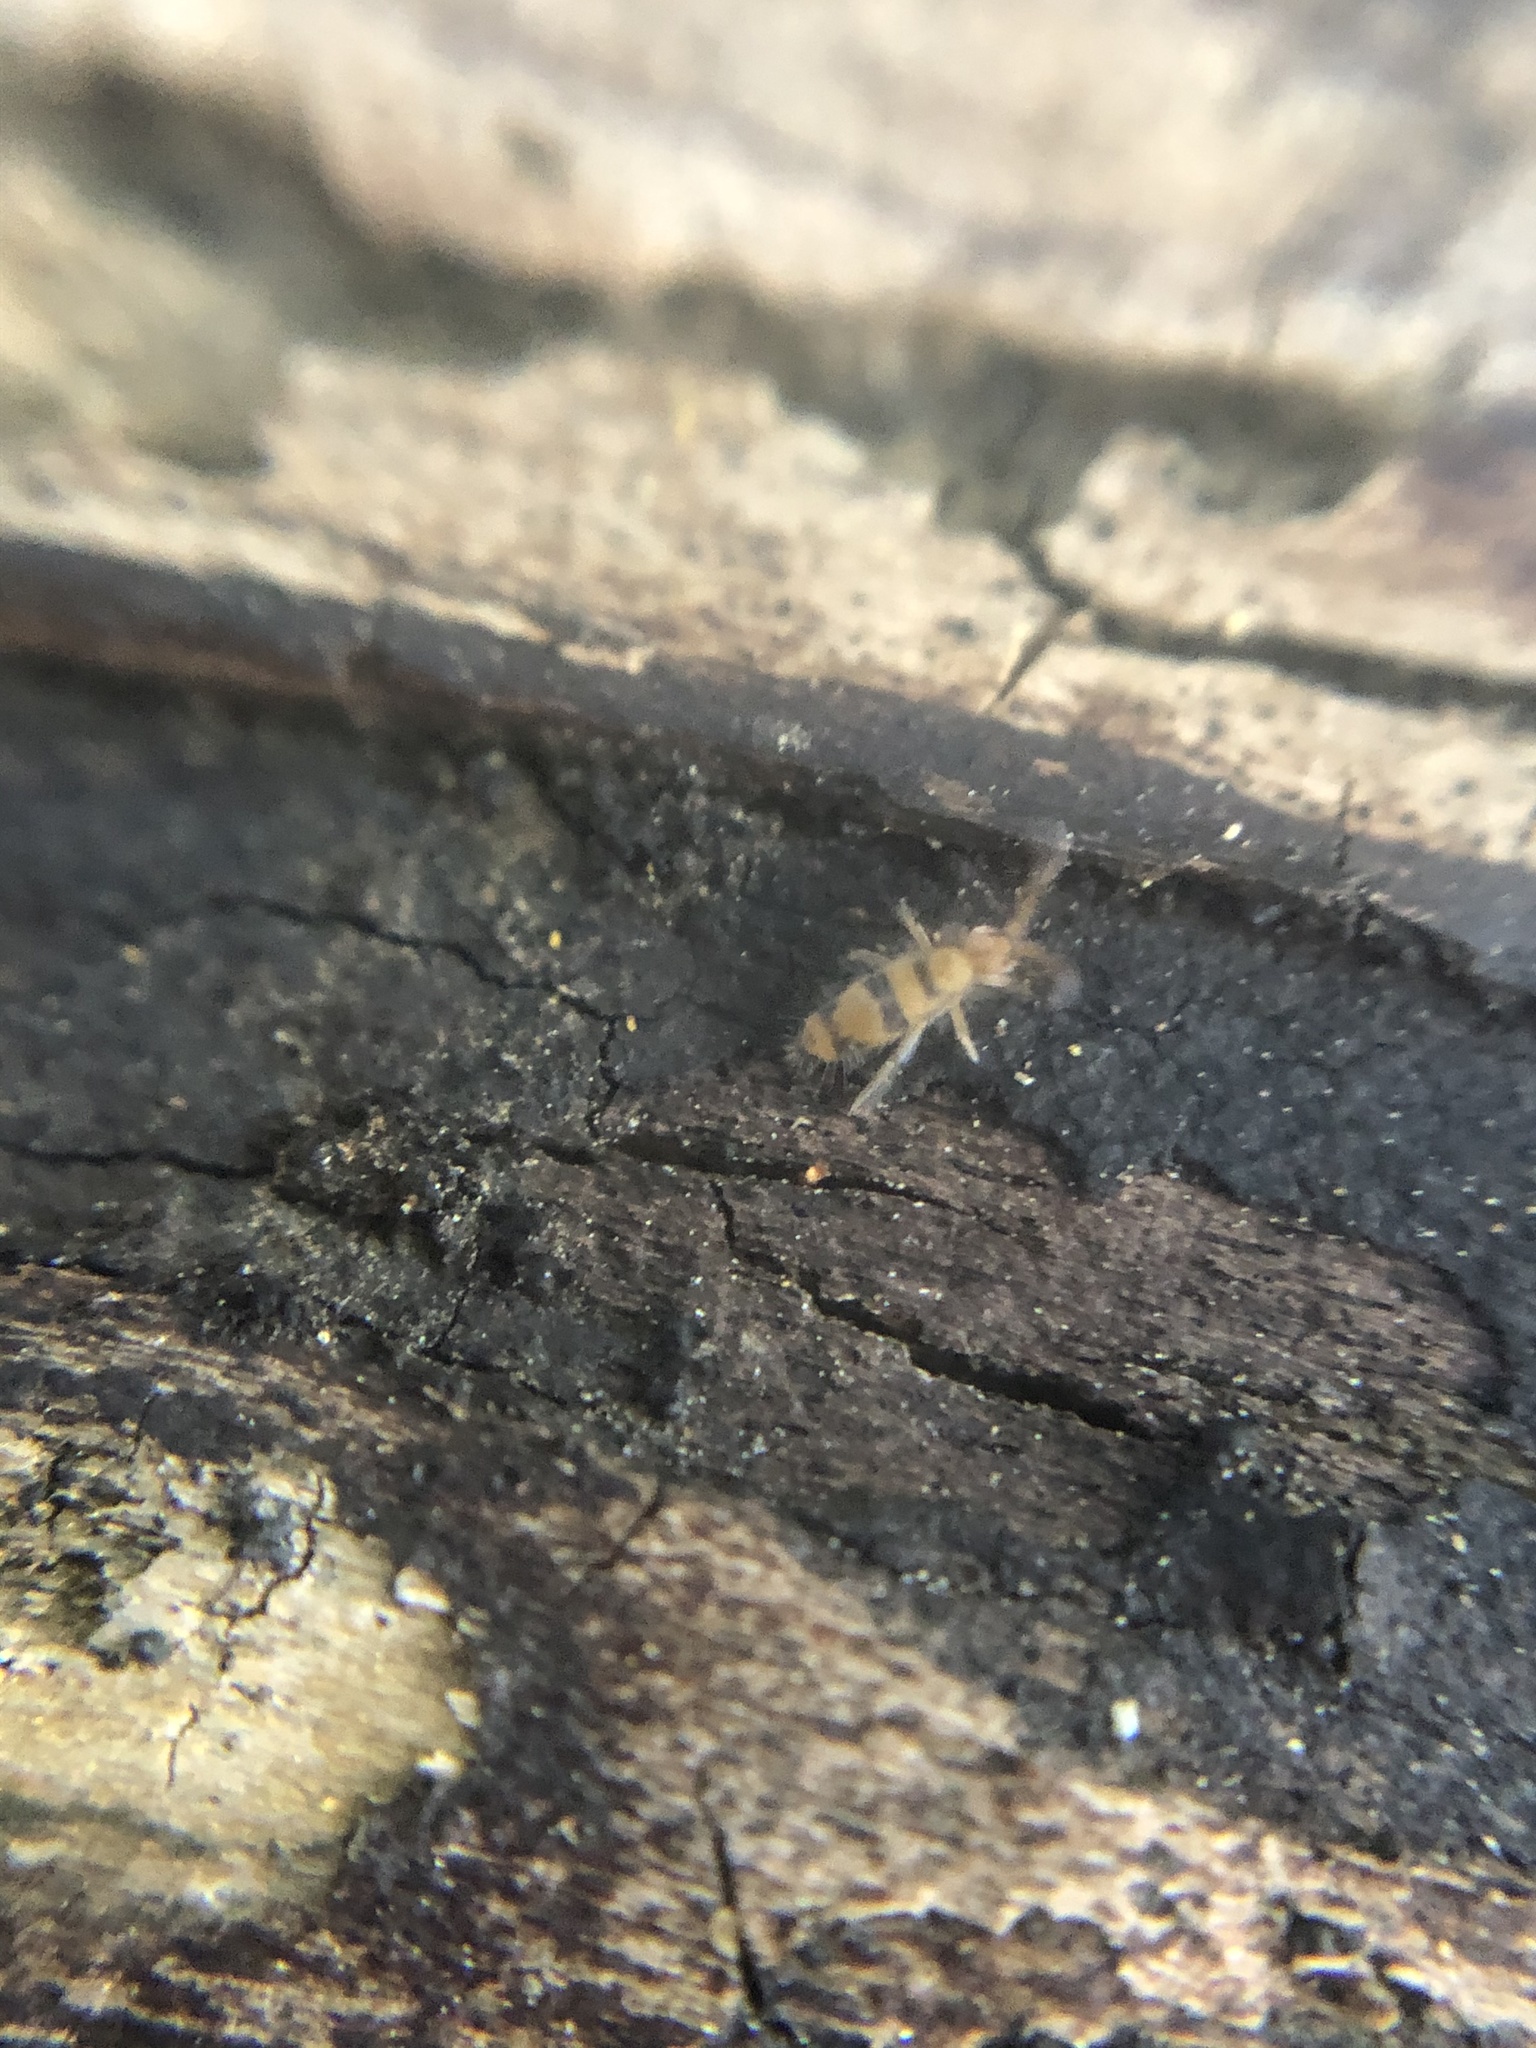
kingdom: Animalia
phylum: Arthropoda
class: Collembola
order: Entomobryomorpha
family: Entomobryidae
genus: Entomobrya
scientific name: Entomobrya triangularis
